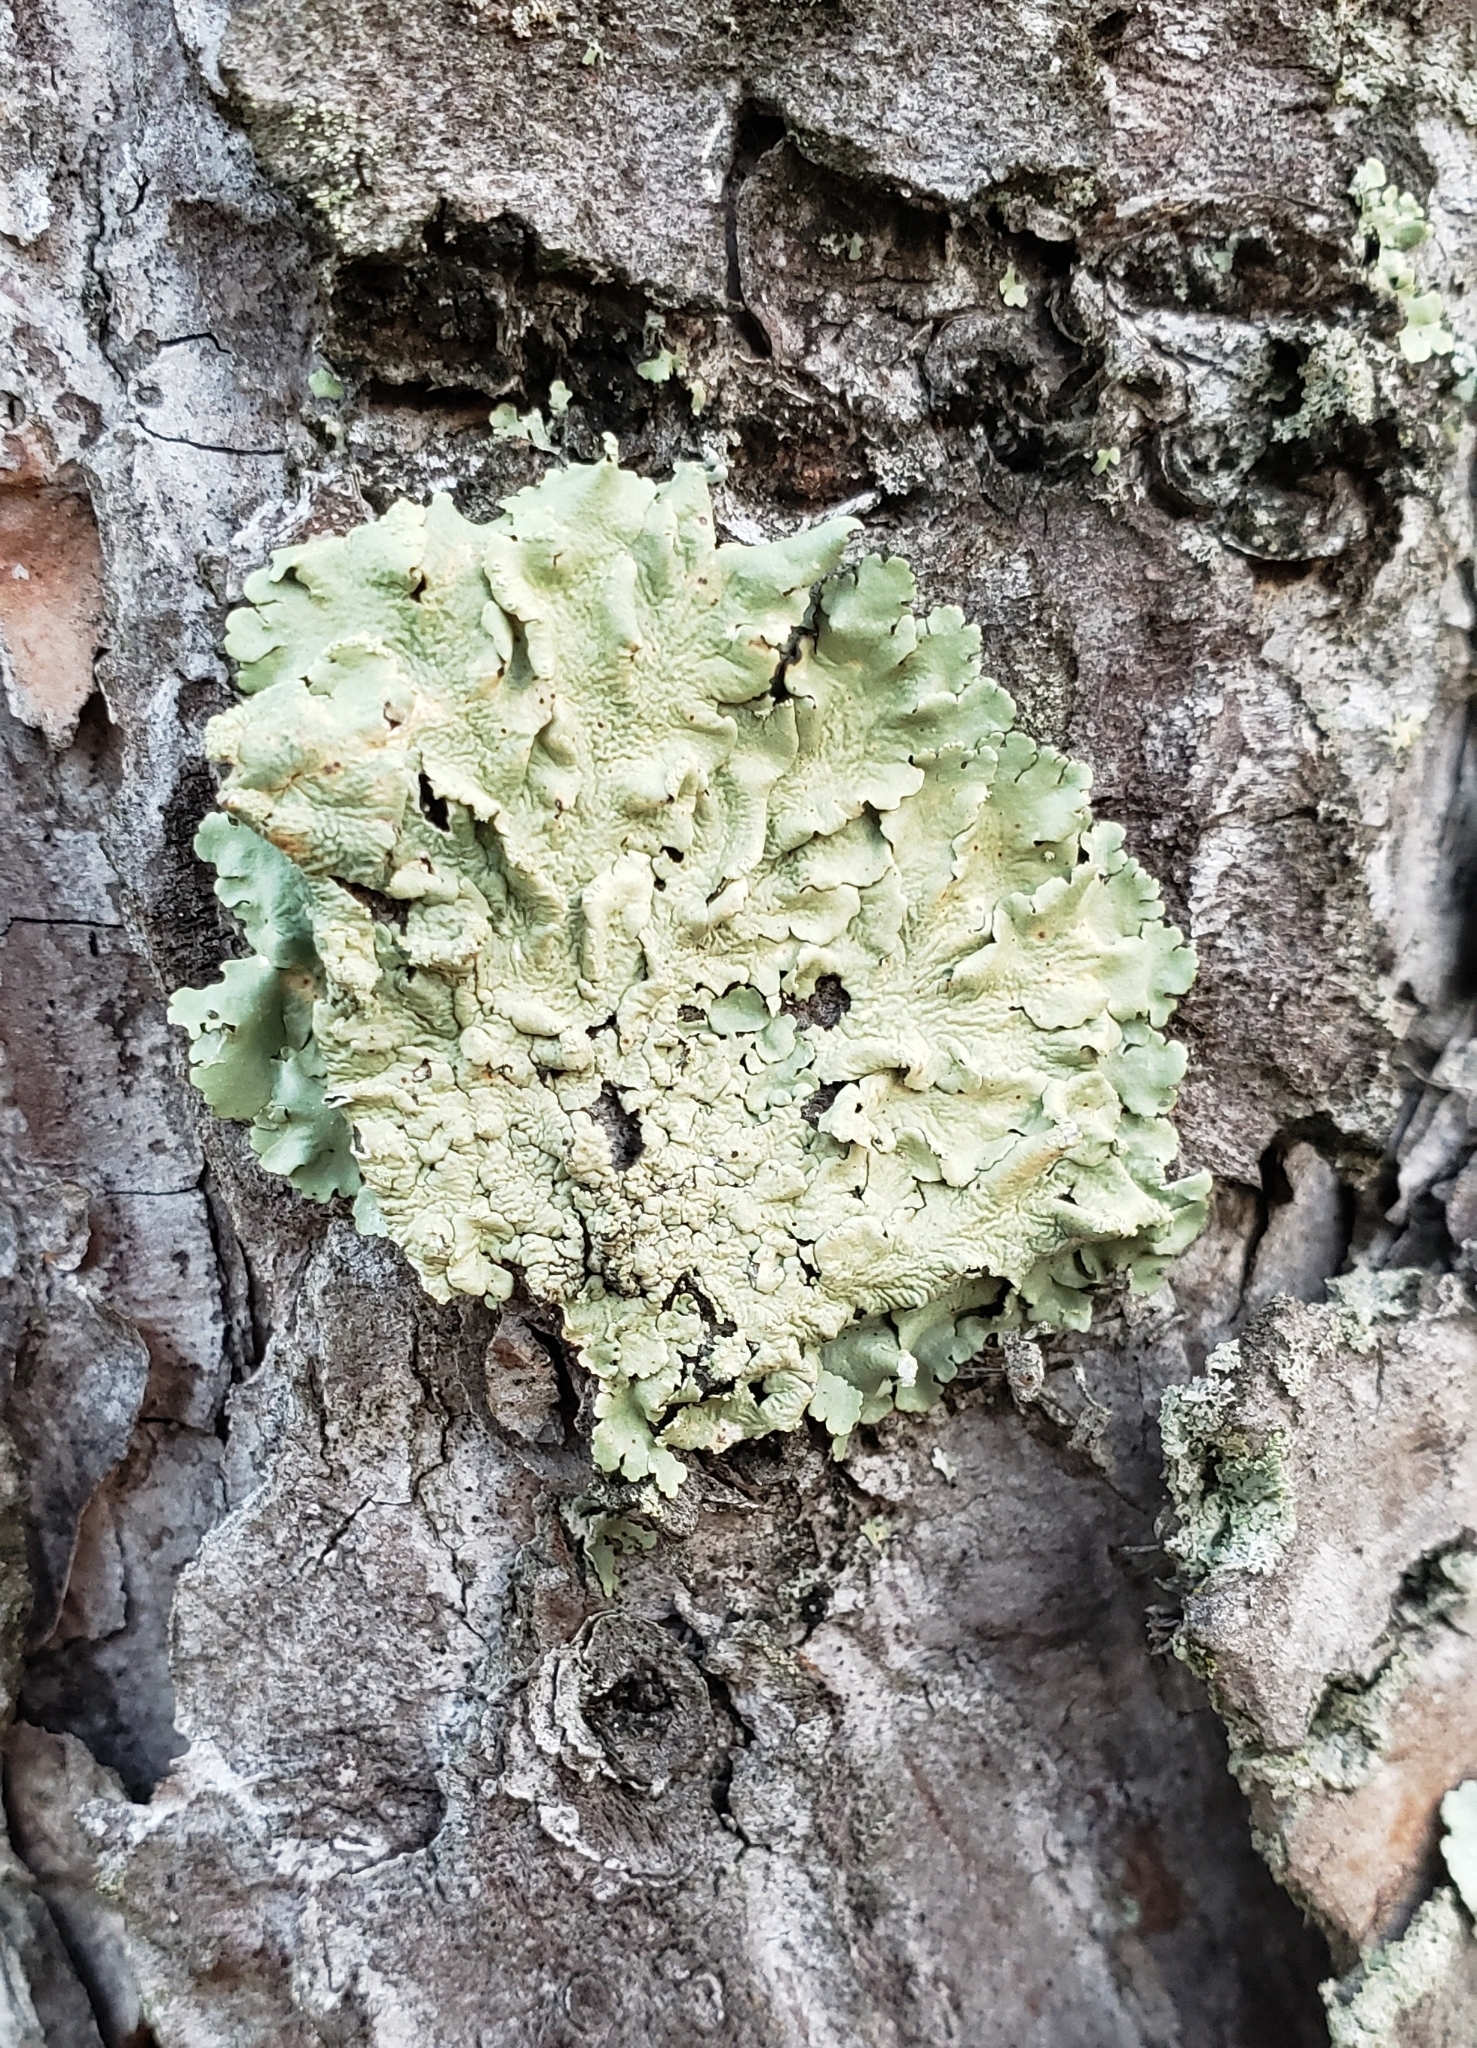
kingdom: Fungi
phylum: Ascomycota
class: Lecanoromycetes
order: Lecanorales
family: Parmeliaceae
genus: Flavoparmelia
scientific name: Flavoparmelia caperata
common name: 40-mile per hour lichen
